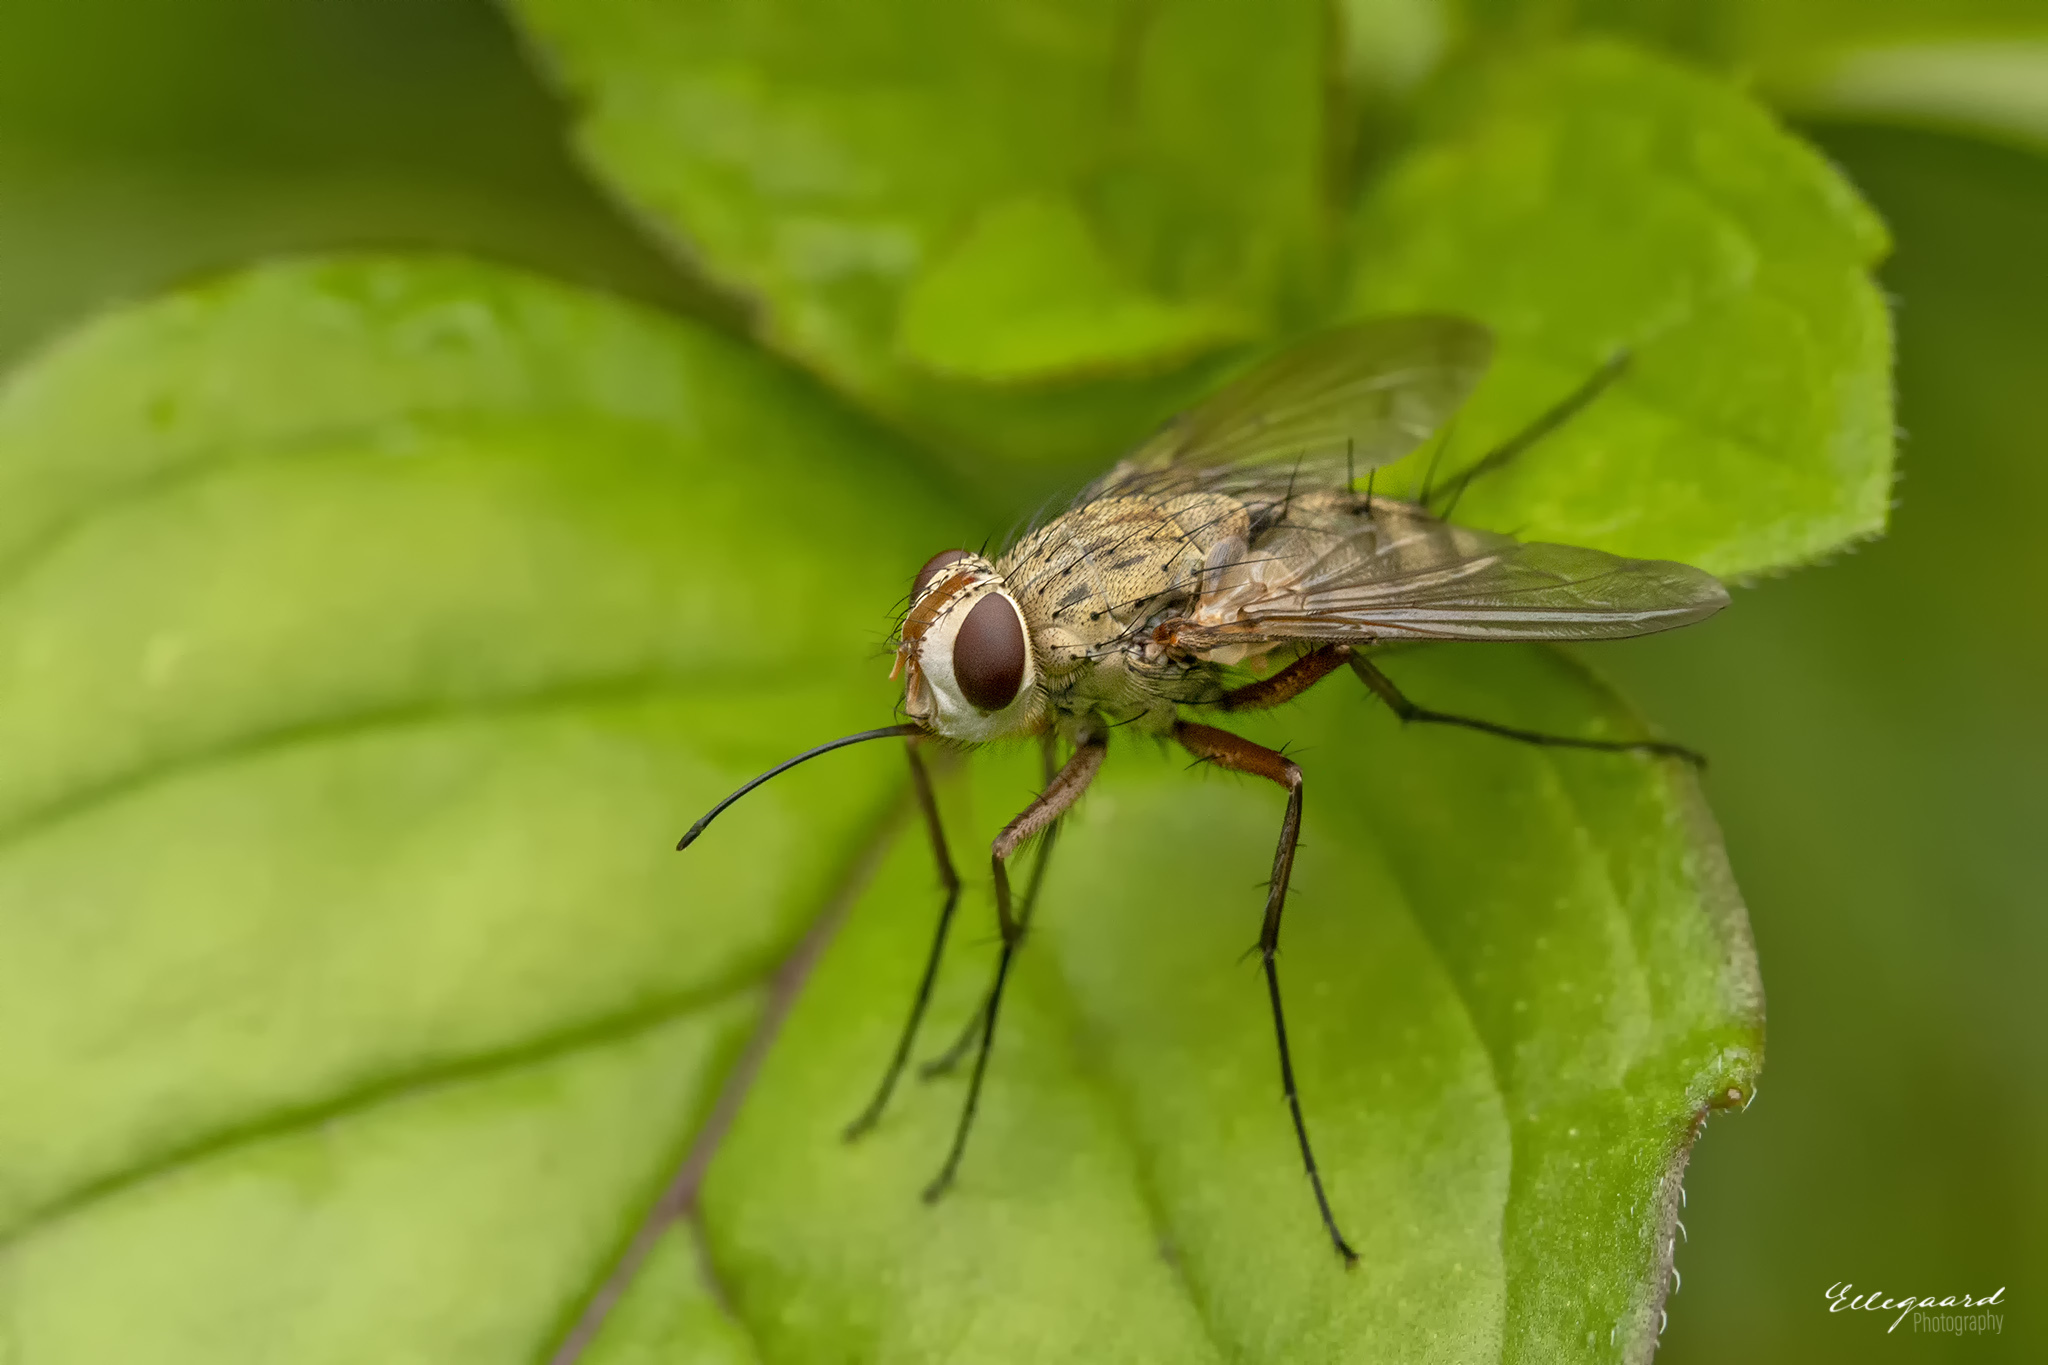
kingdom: Animalia
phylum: Arthropoda
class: Insecta
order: Diptera
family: Tachinidae
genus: Prosena
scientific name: Prosena siberita
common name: Parasitic fly
